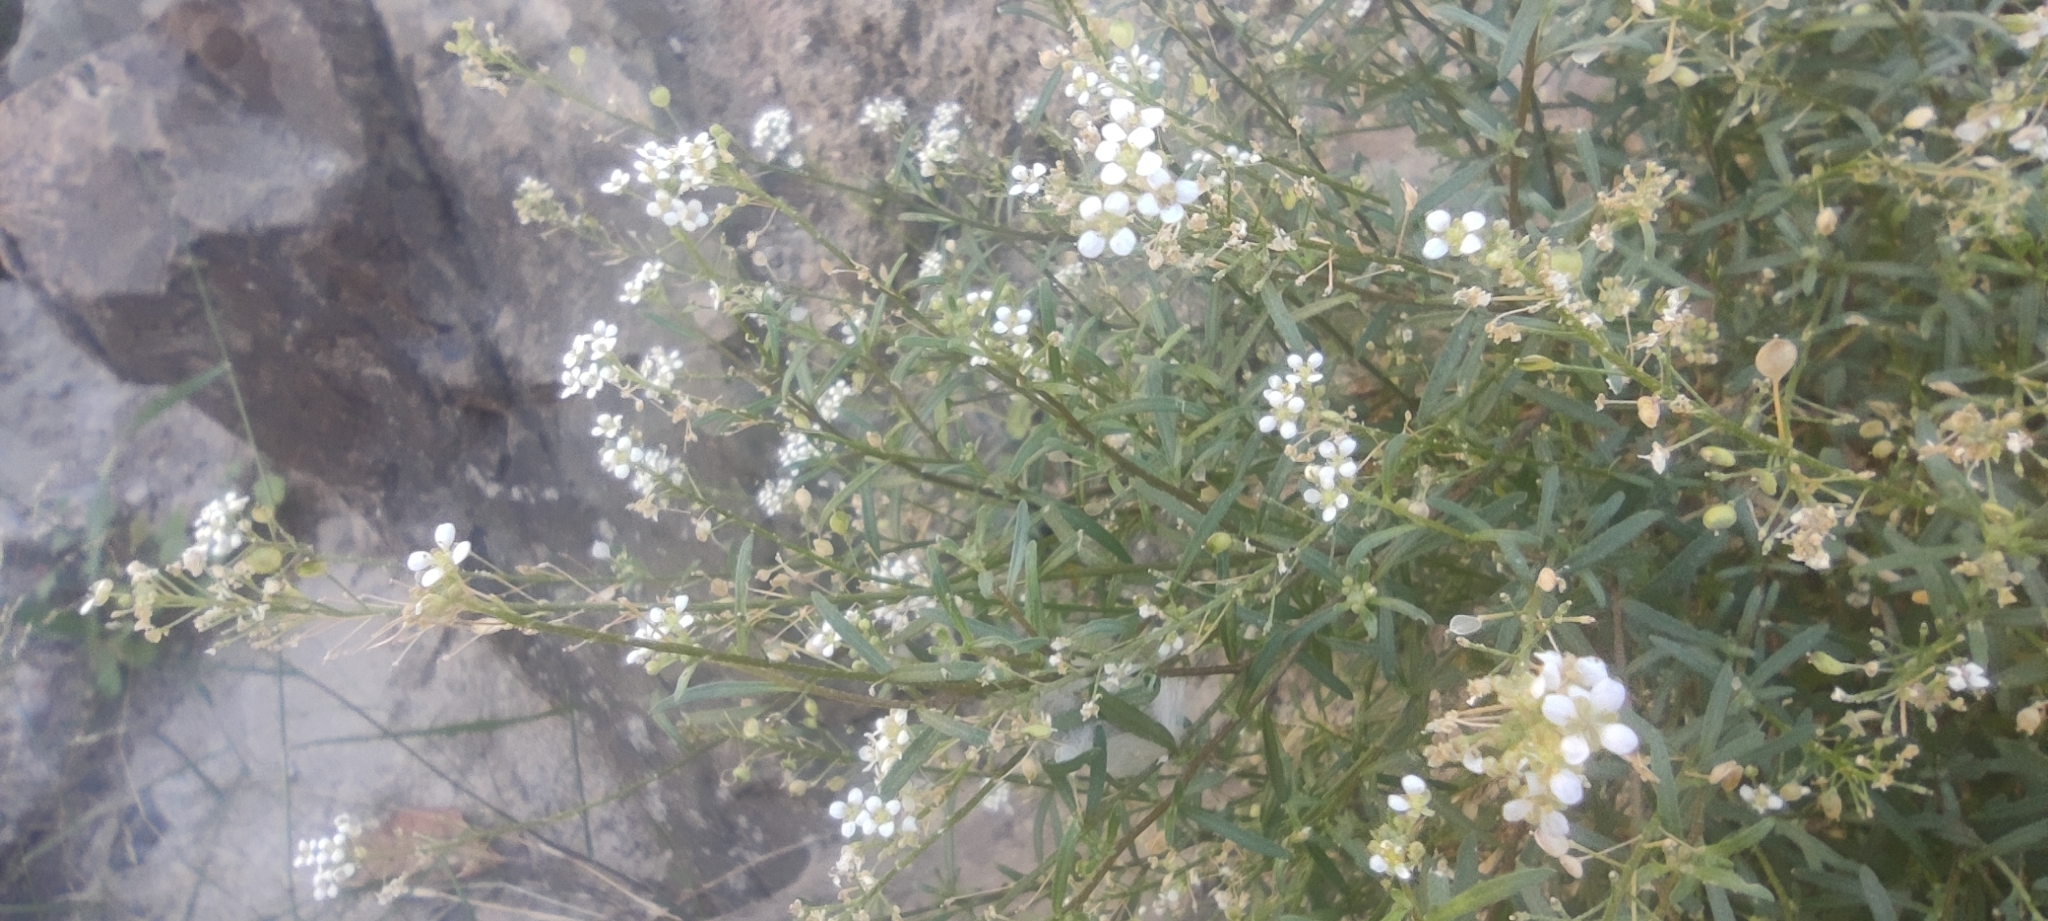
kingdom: Plantae
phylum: Tracheophyta
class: Magnoliopsida
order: Brassicales
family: Brassicaceae
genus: Lobularia
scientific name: Lobularia canariensis
